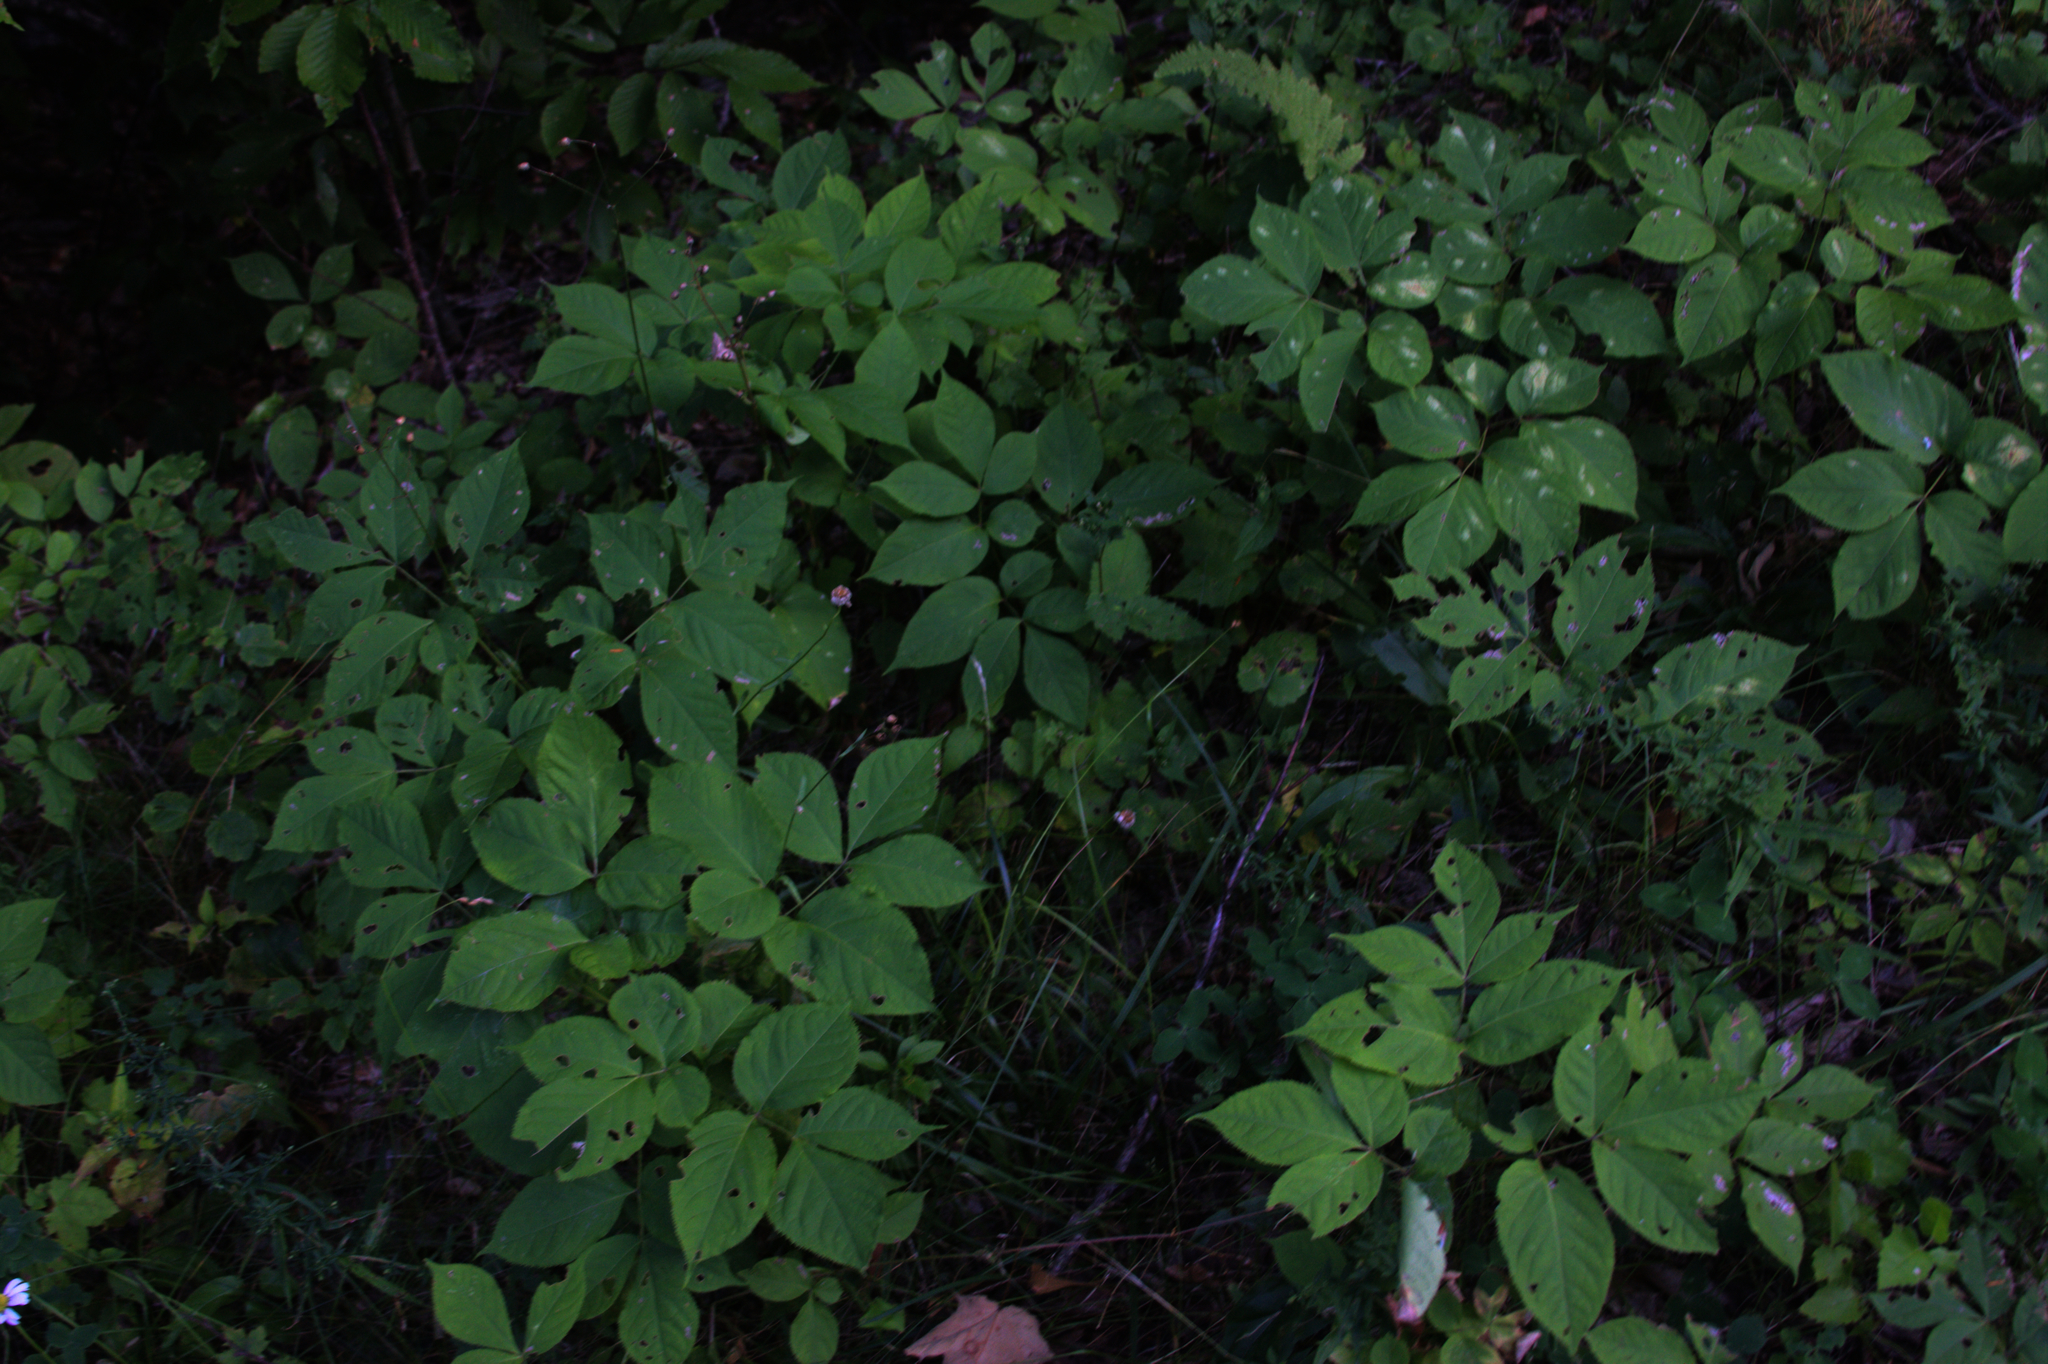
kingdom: Plantae
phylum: Tracheophyta
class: Magnoliopsida
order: Apiales
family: Araliaceae
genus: Aralia
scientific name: Aralia nudicaulis
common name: Wild sarsaparilla
